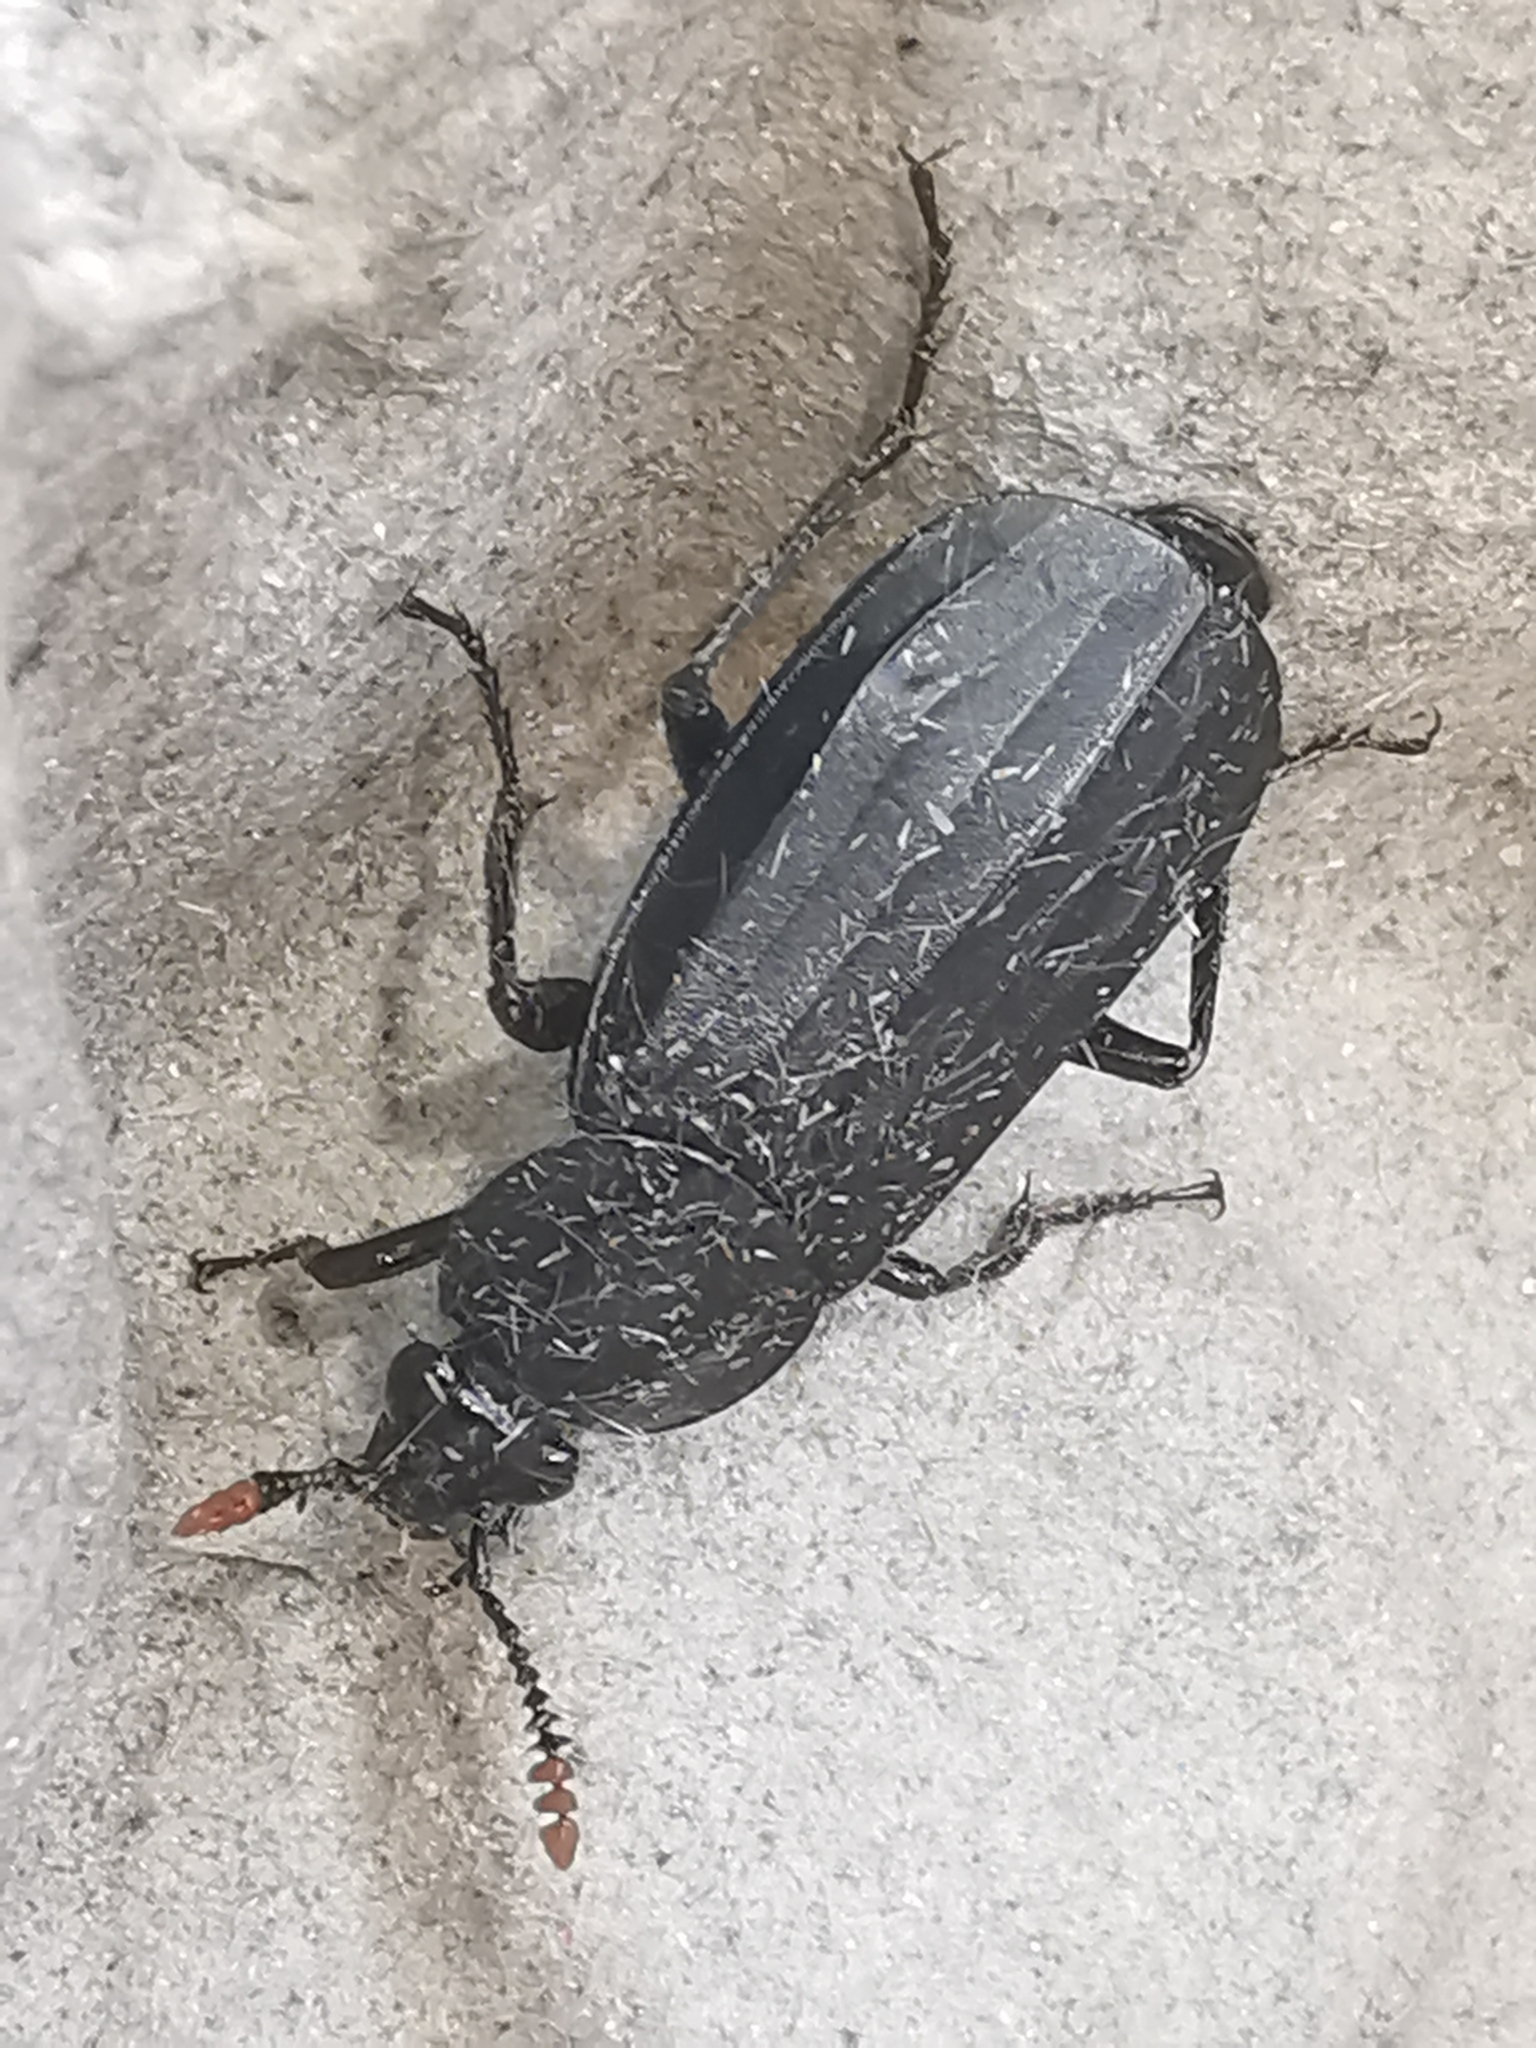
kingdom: Animalia
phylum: Arthropoda
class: Insecta
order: Coleoptera
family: Staphylinidae
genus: Necrodes
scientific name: Necrodes littoralis
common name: Shore sexton beetle
